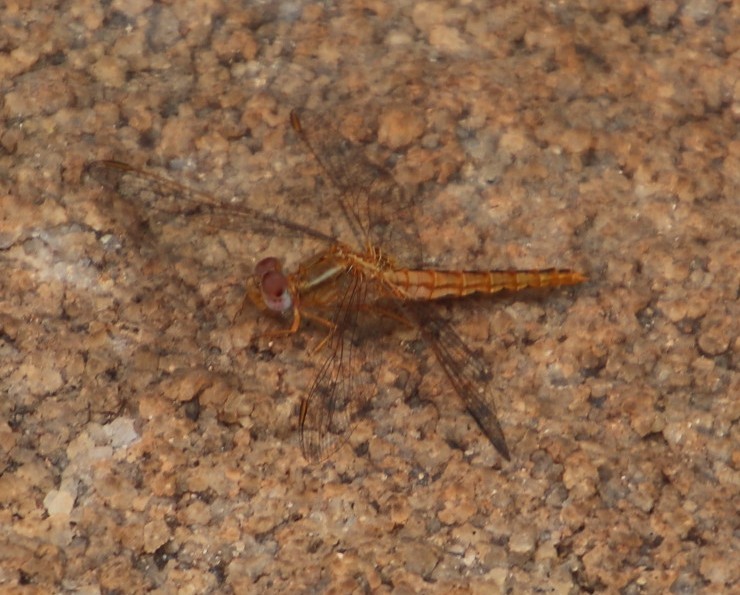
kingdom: Animalia
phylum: Arthropoda
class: Insecta
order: Odonata
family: Libellulidae
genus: Crocothemis
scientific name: Crocothemis sanguinolenta
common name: Little scarlet
